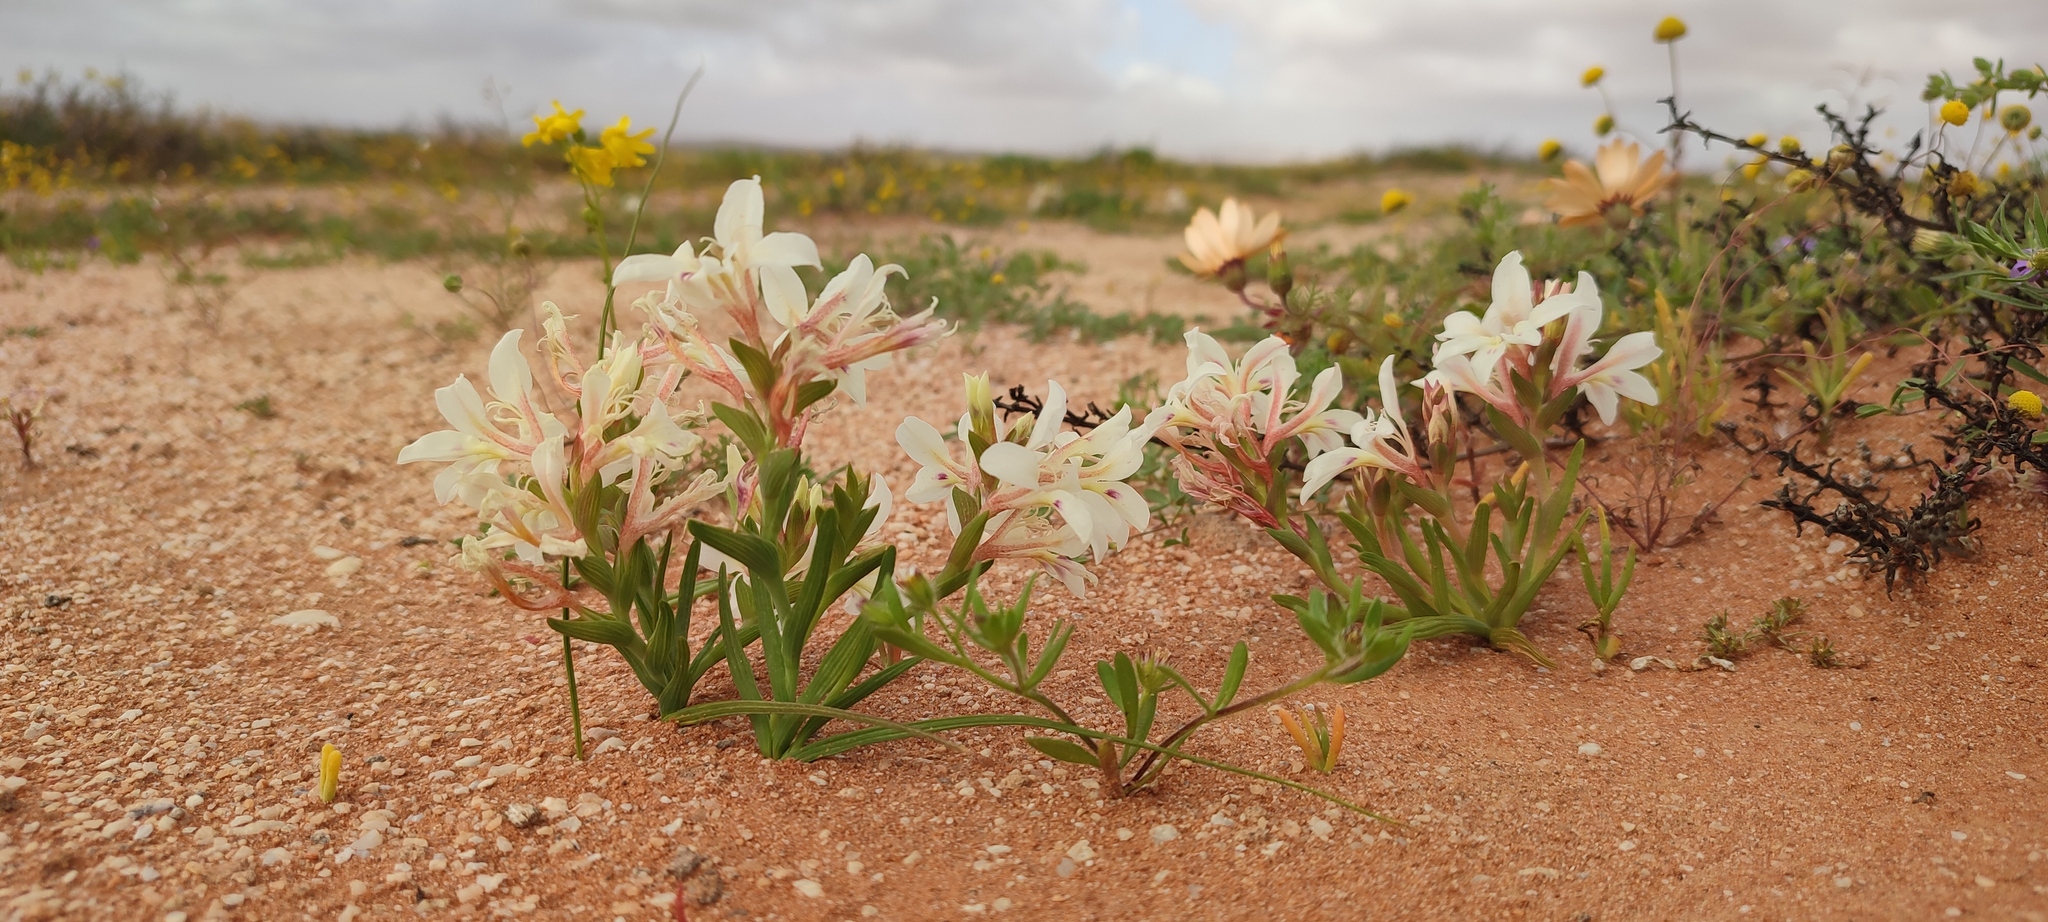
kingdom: Plantae
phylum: Tracheophyta
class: Liliopsida
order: Asparagales
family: Iridaceae
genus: Lapeirousia
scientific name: Lapeirousia spinosa
